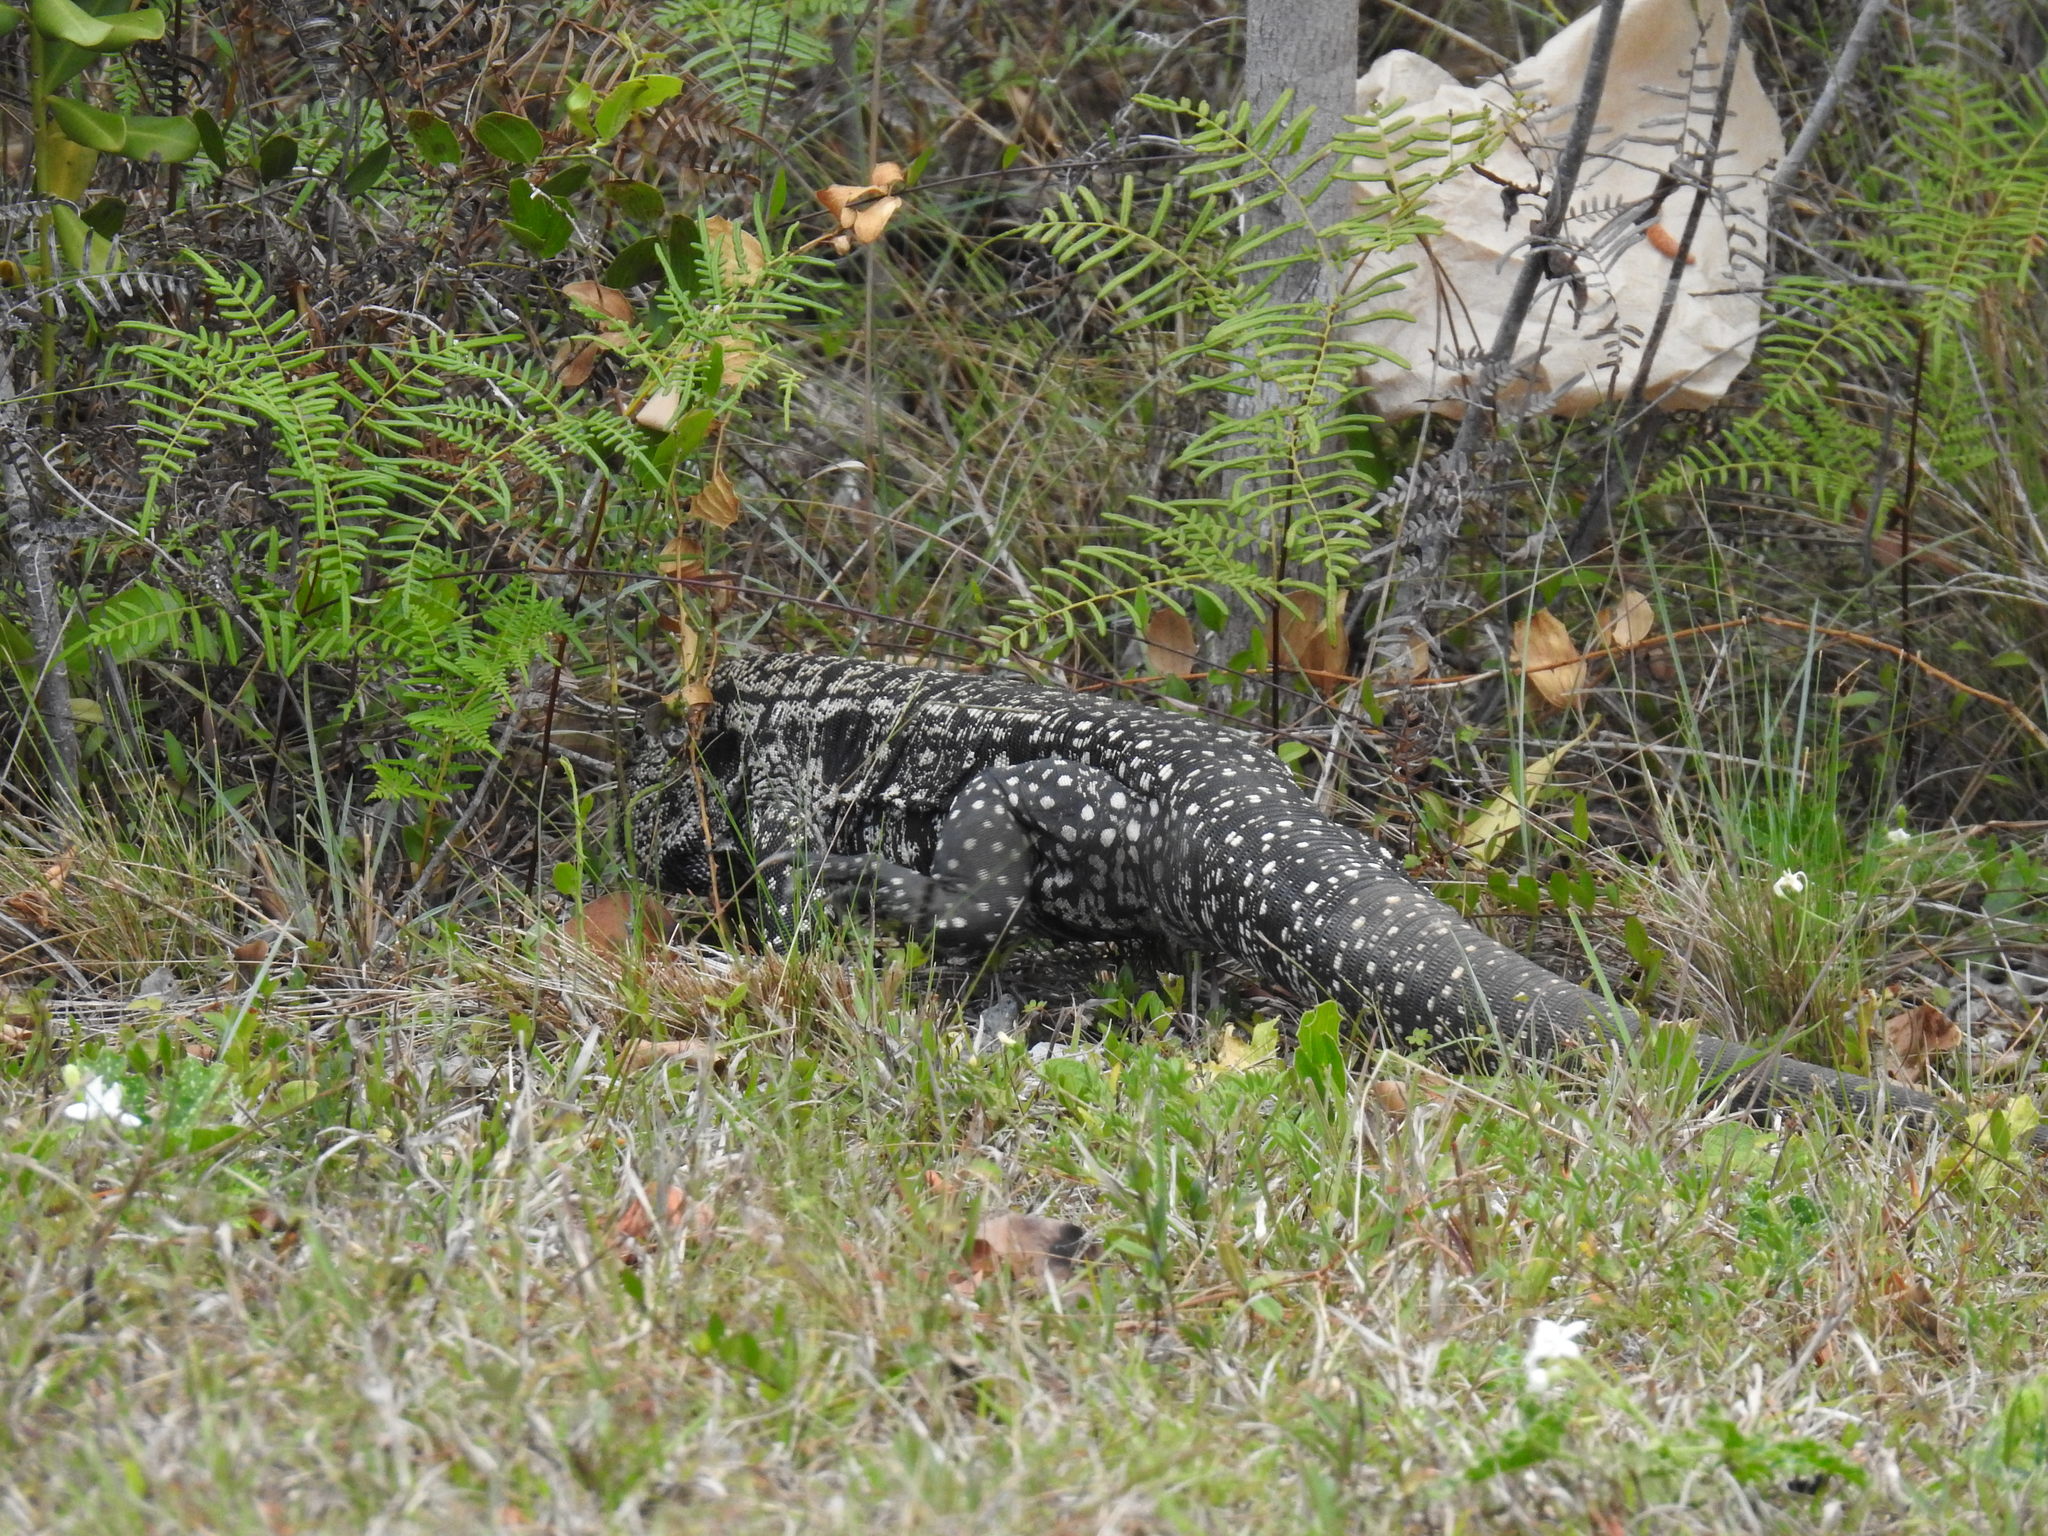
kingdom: Animalia
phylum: Chordata
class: Squamata
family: Teiidae
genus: Salvator
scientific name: Salvator merianae
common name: Argentine black and white tegu
